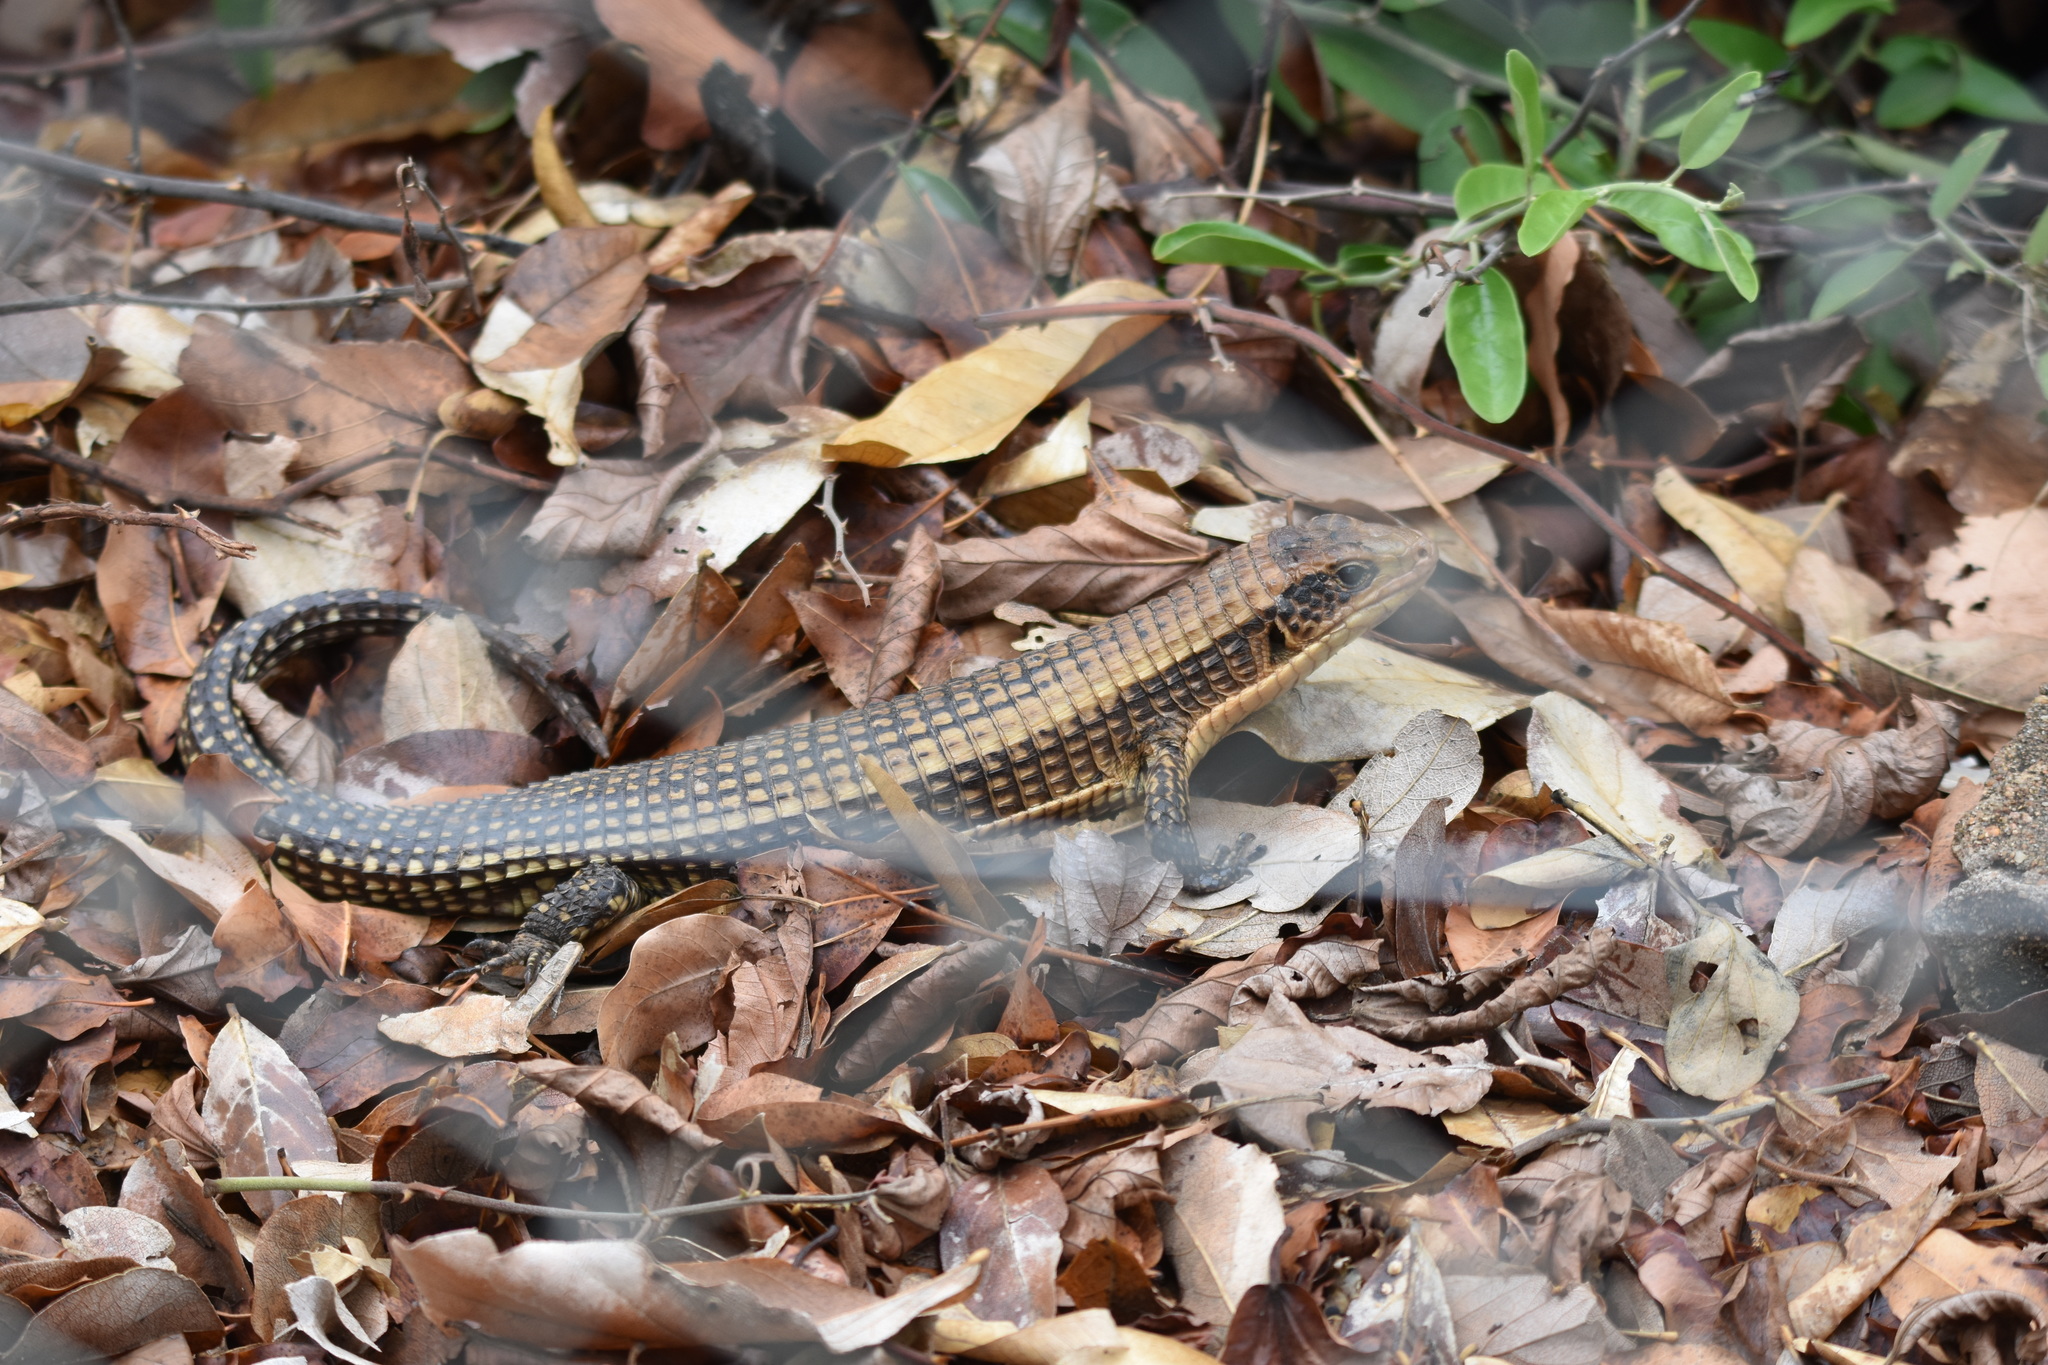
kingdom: Animalia
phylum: Chordata
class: Squamata
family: Gerrhosauridae
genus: Broadleysaurus
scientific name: Broadleysaurus major
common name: Rough-scaled plated lizard
